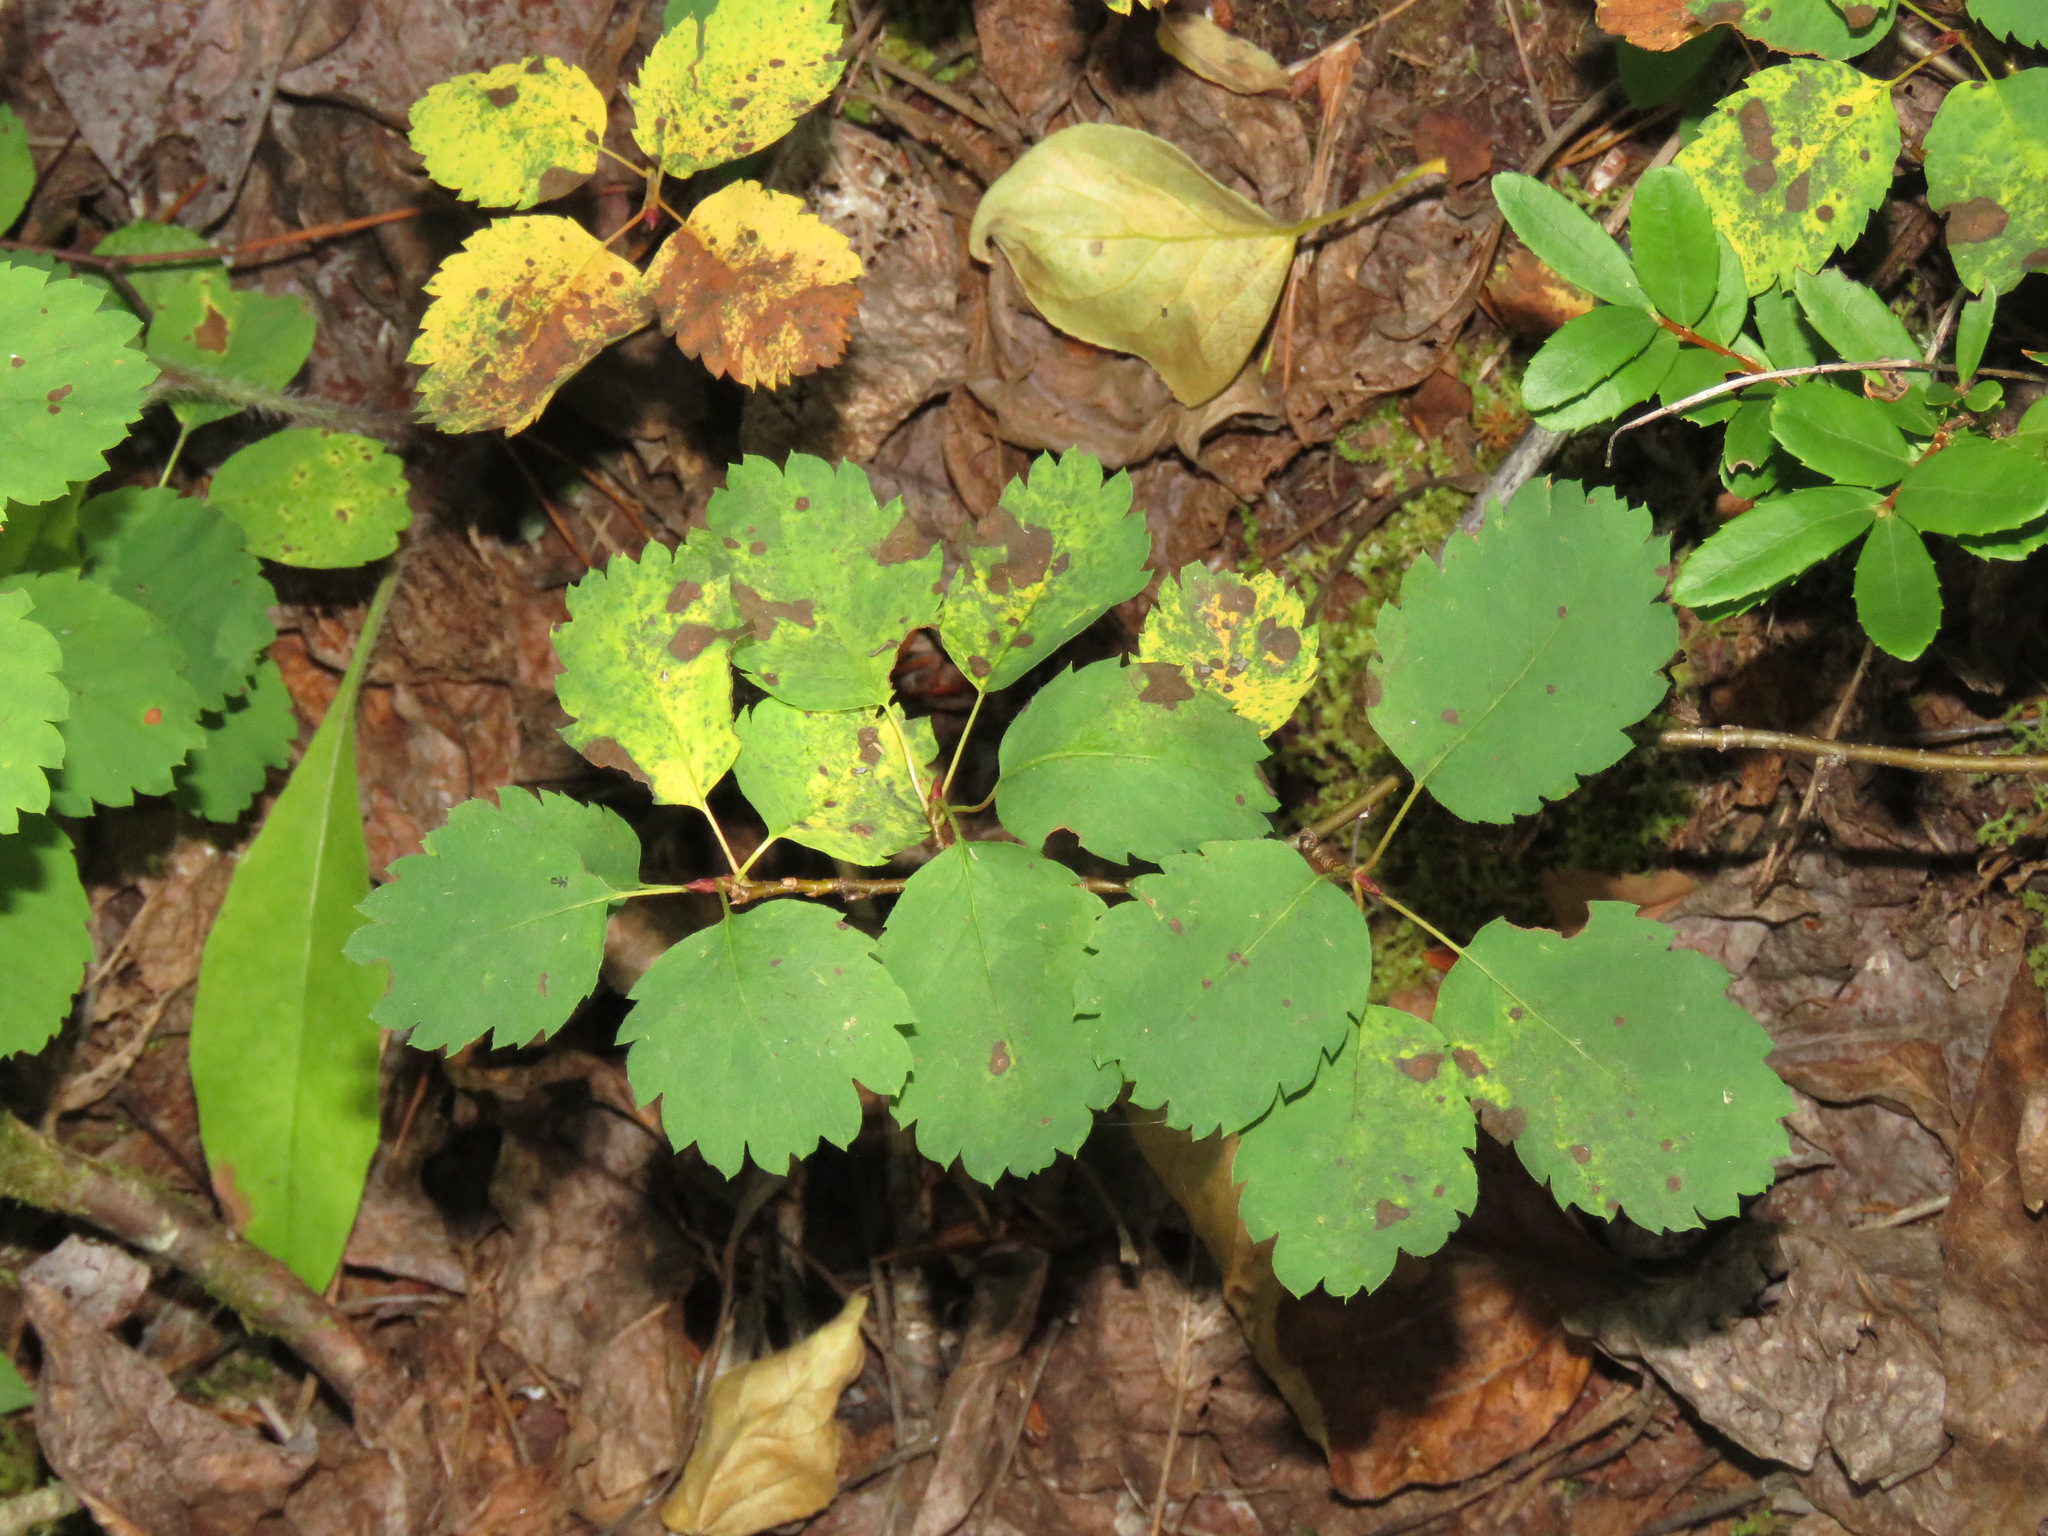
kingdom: Plantae
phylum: Tracheophyta
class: Magnoliopsida
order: Rosales
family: Rosaceae
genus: Amelanchier
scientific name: Amelanchier alnifolia
